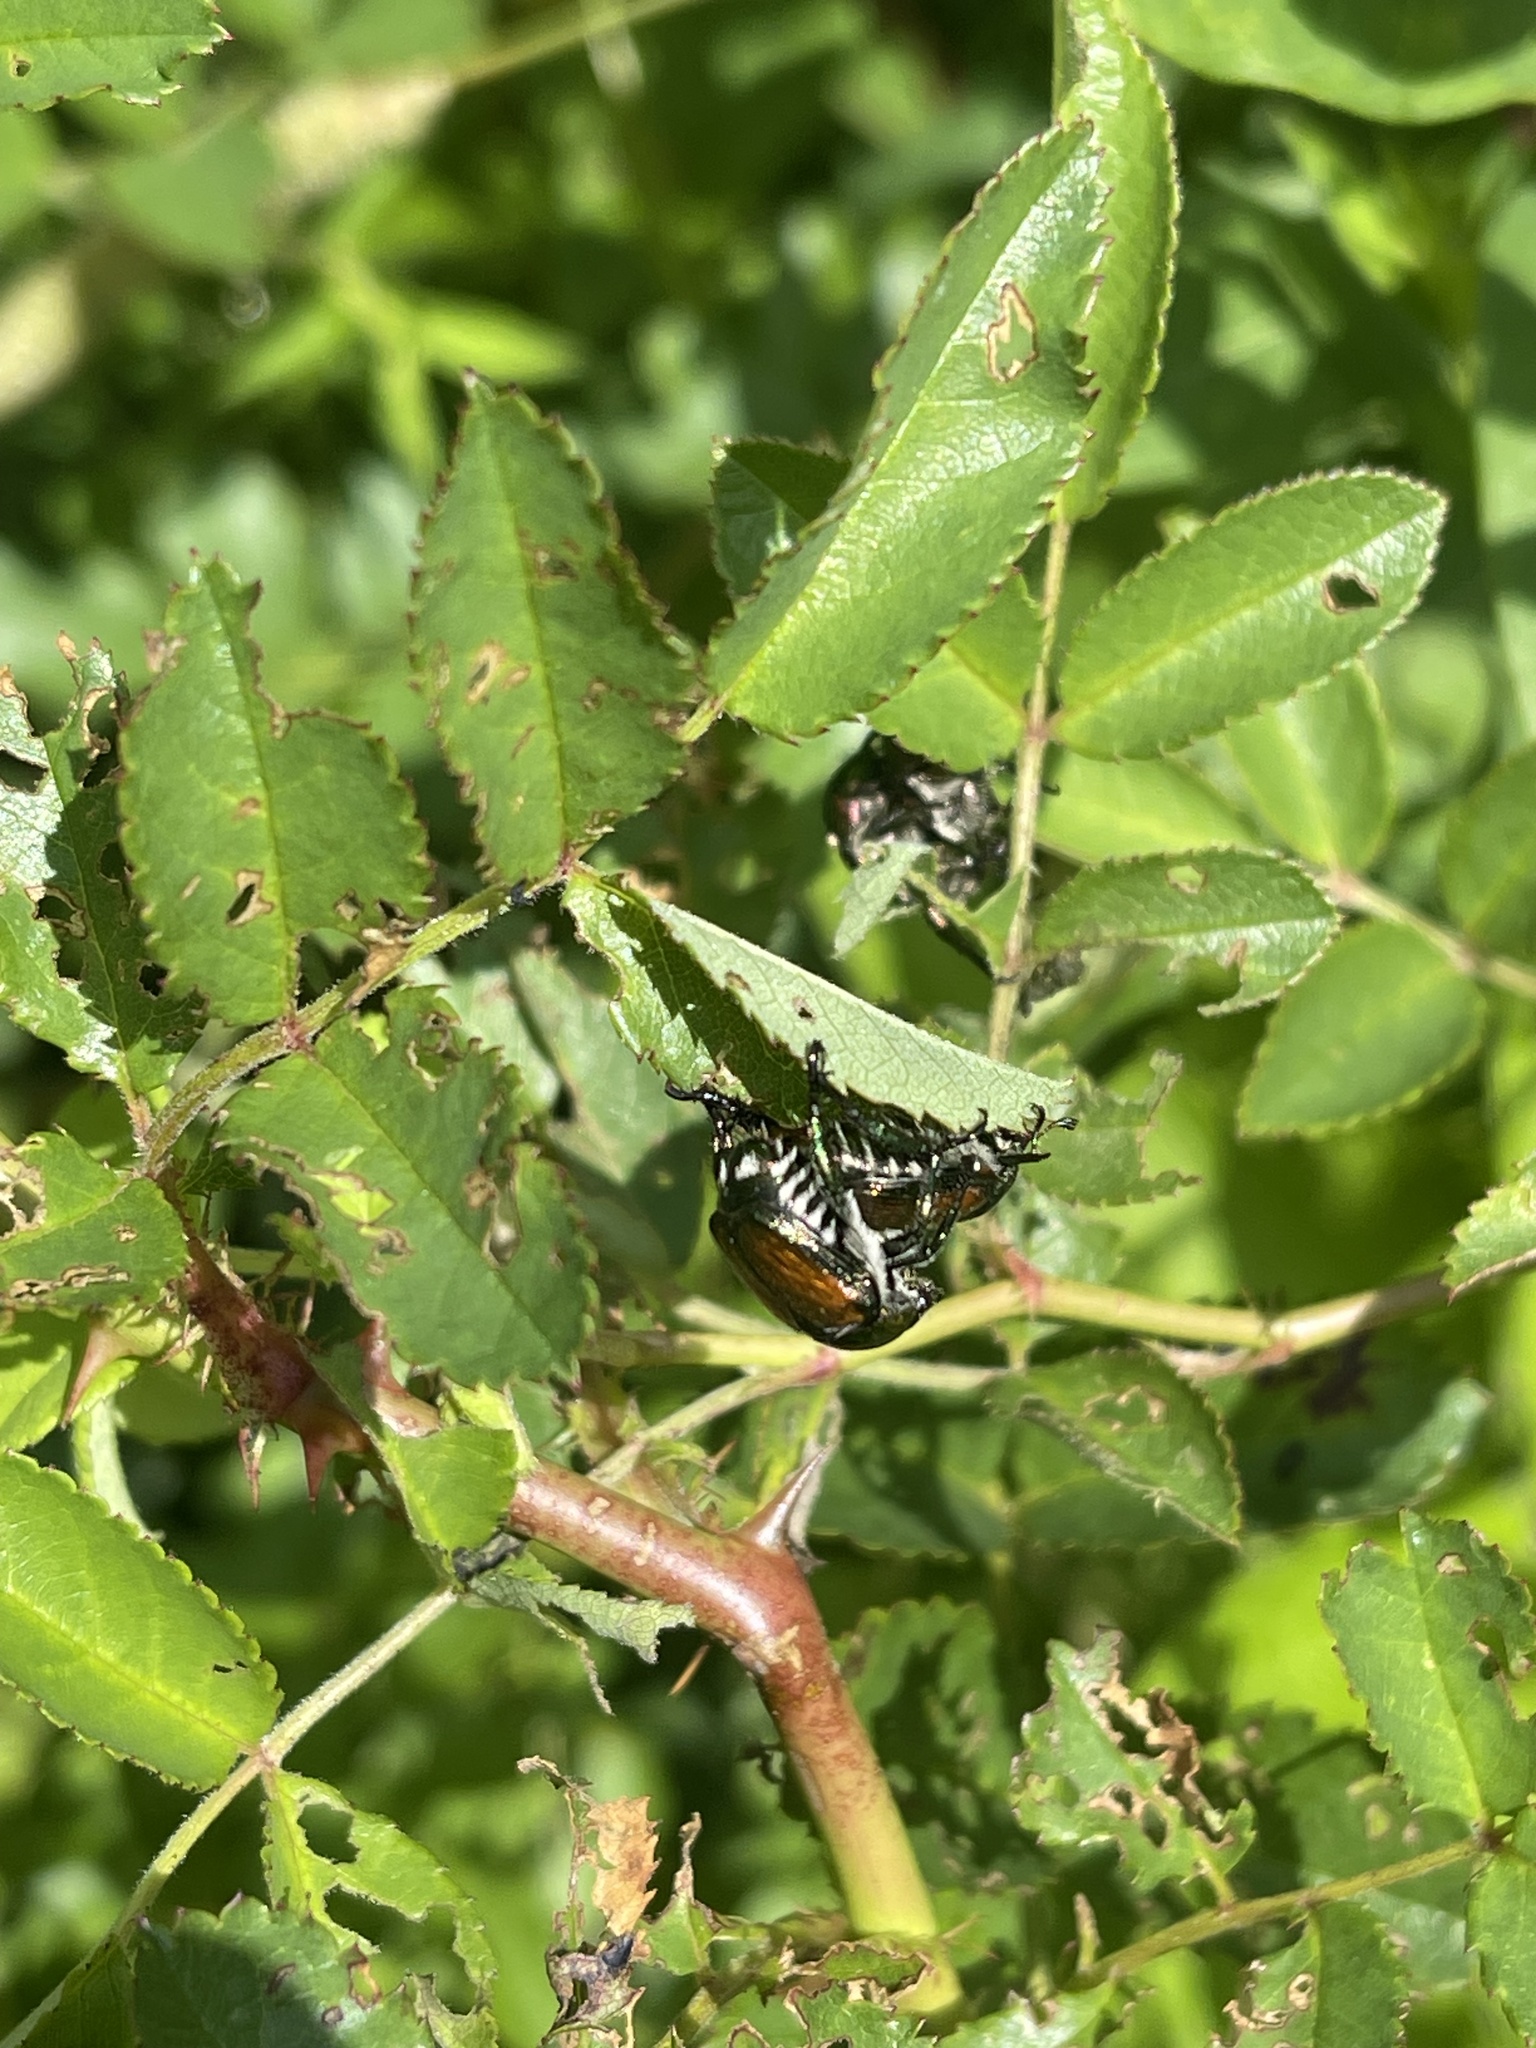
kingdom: Animalia
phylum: Arthropoda
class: Insecta
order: Coleoptera
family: Scarabaeidae
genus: Popillia
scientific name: Popillia japonica
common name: Japanese beetle
